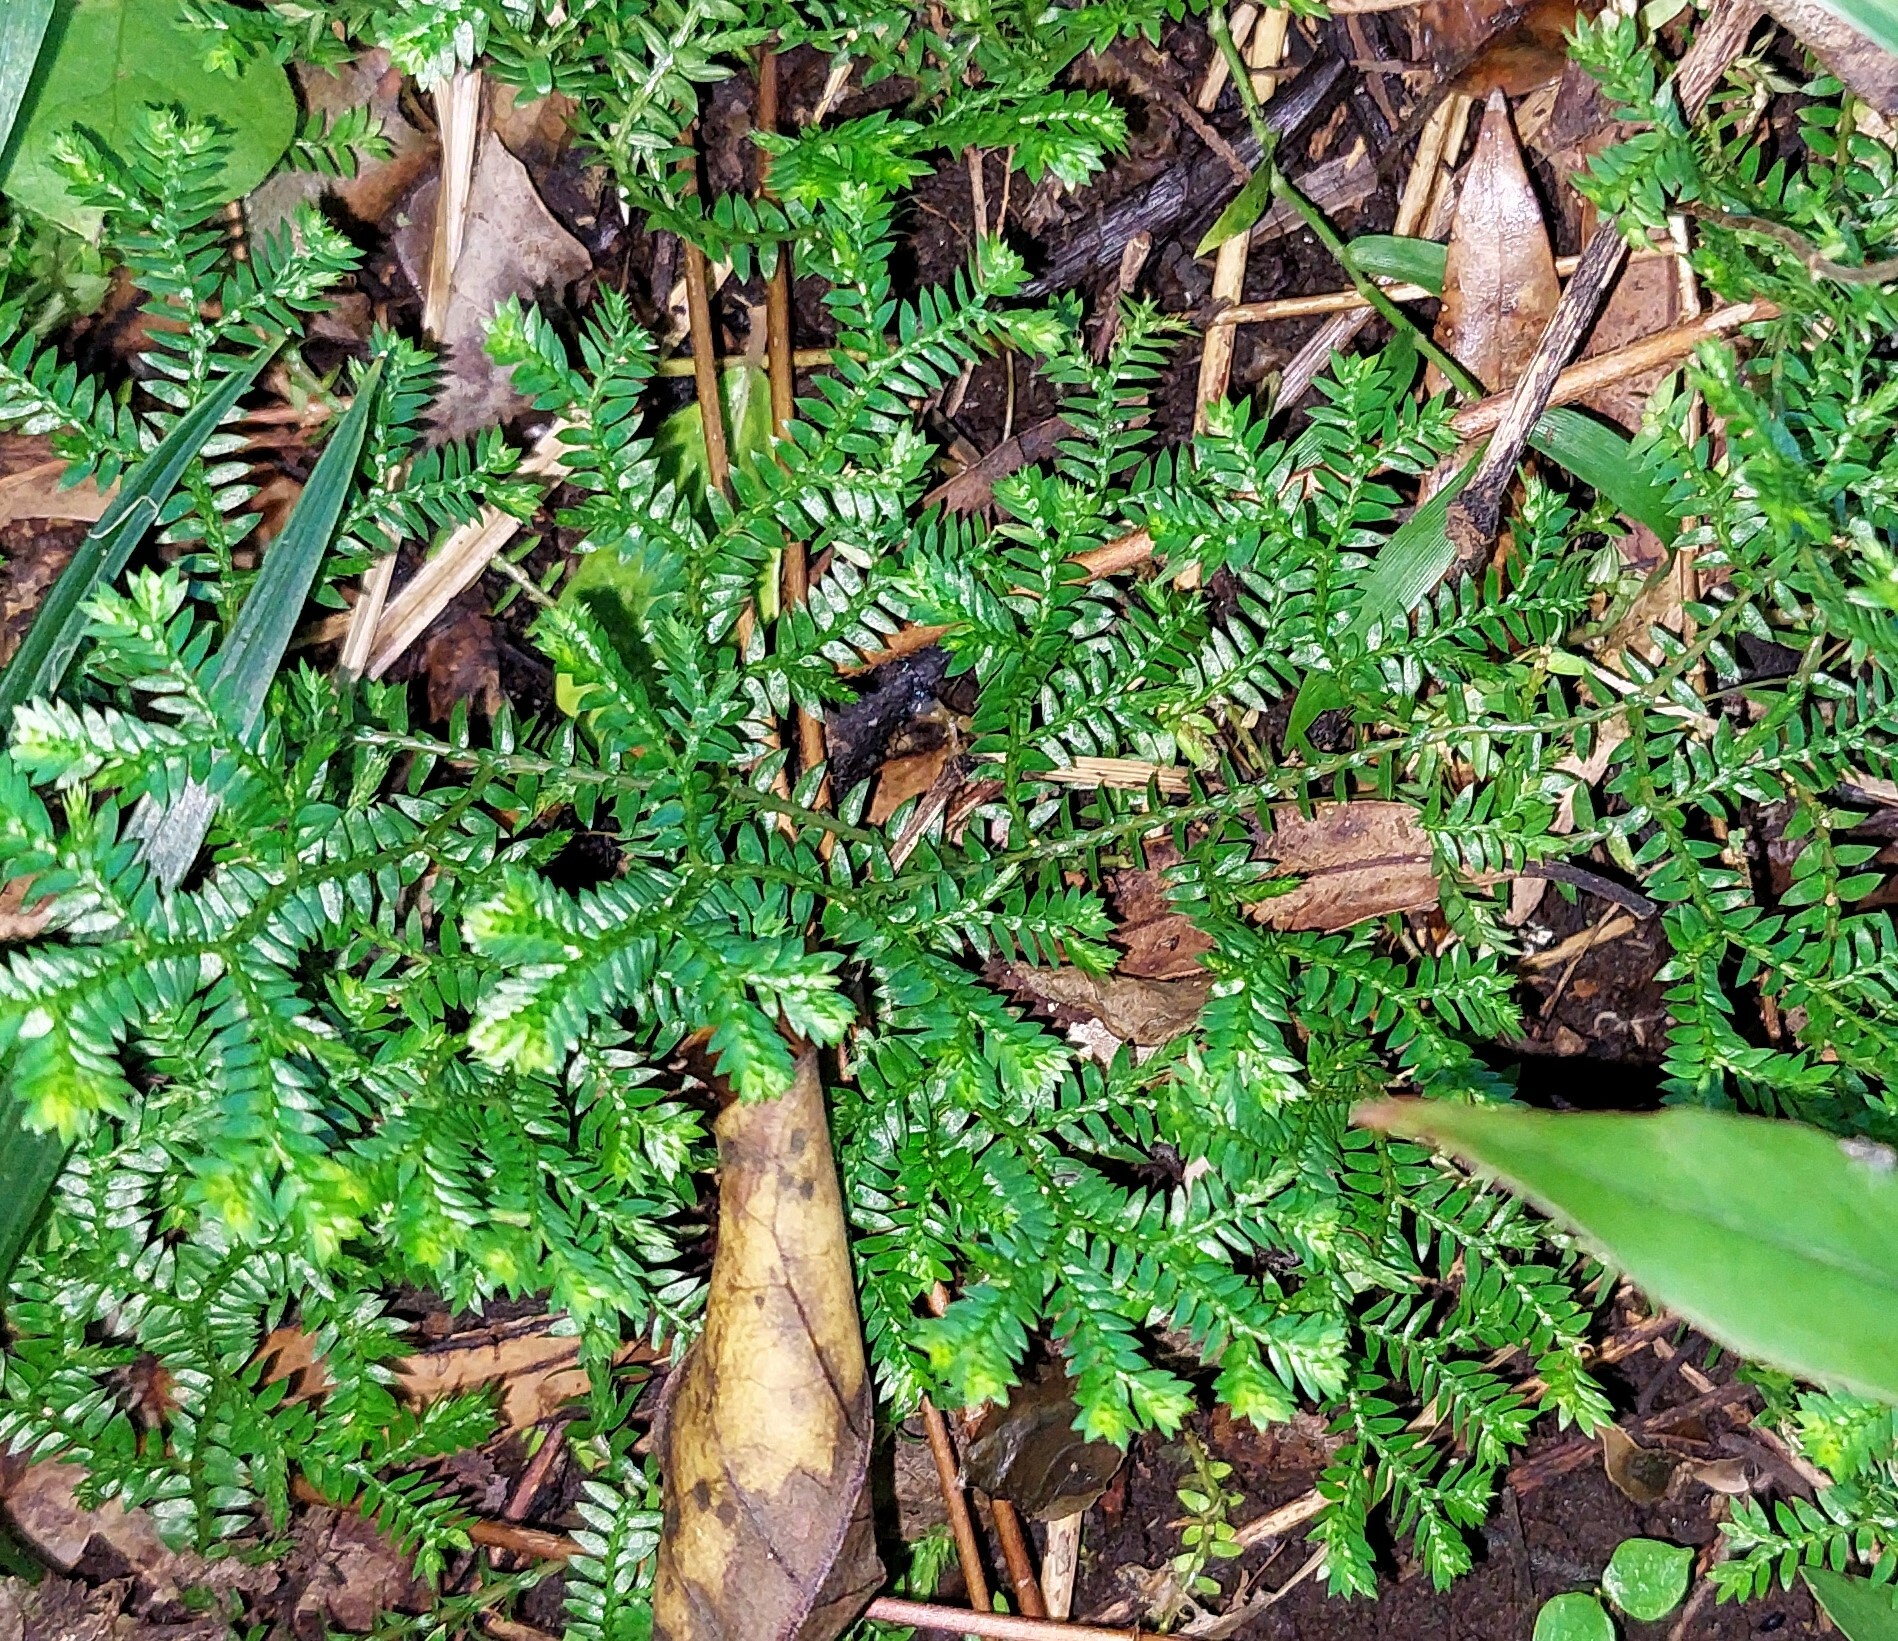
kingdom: Plantae
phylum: Tracheophyta
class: Lycopodiopsida
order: Selaginellales
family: Selaginellaceae
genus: Selaginella
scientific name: Selaginella kraussiana
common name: Krauss' spikemoss
